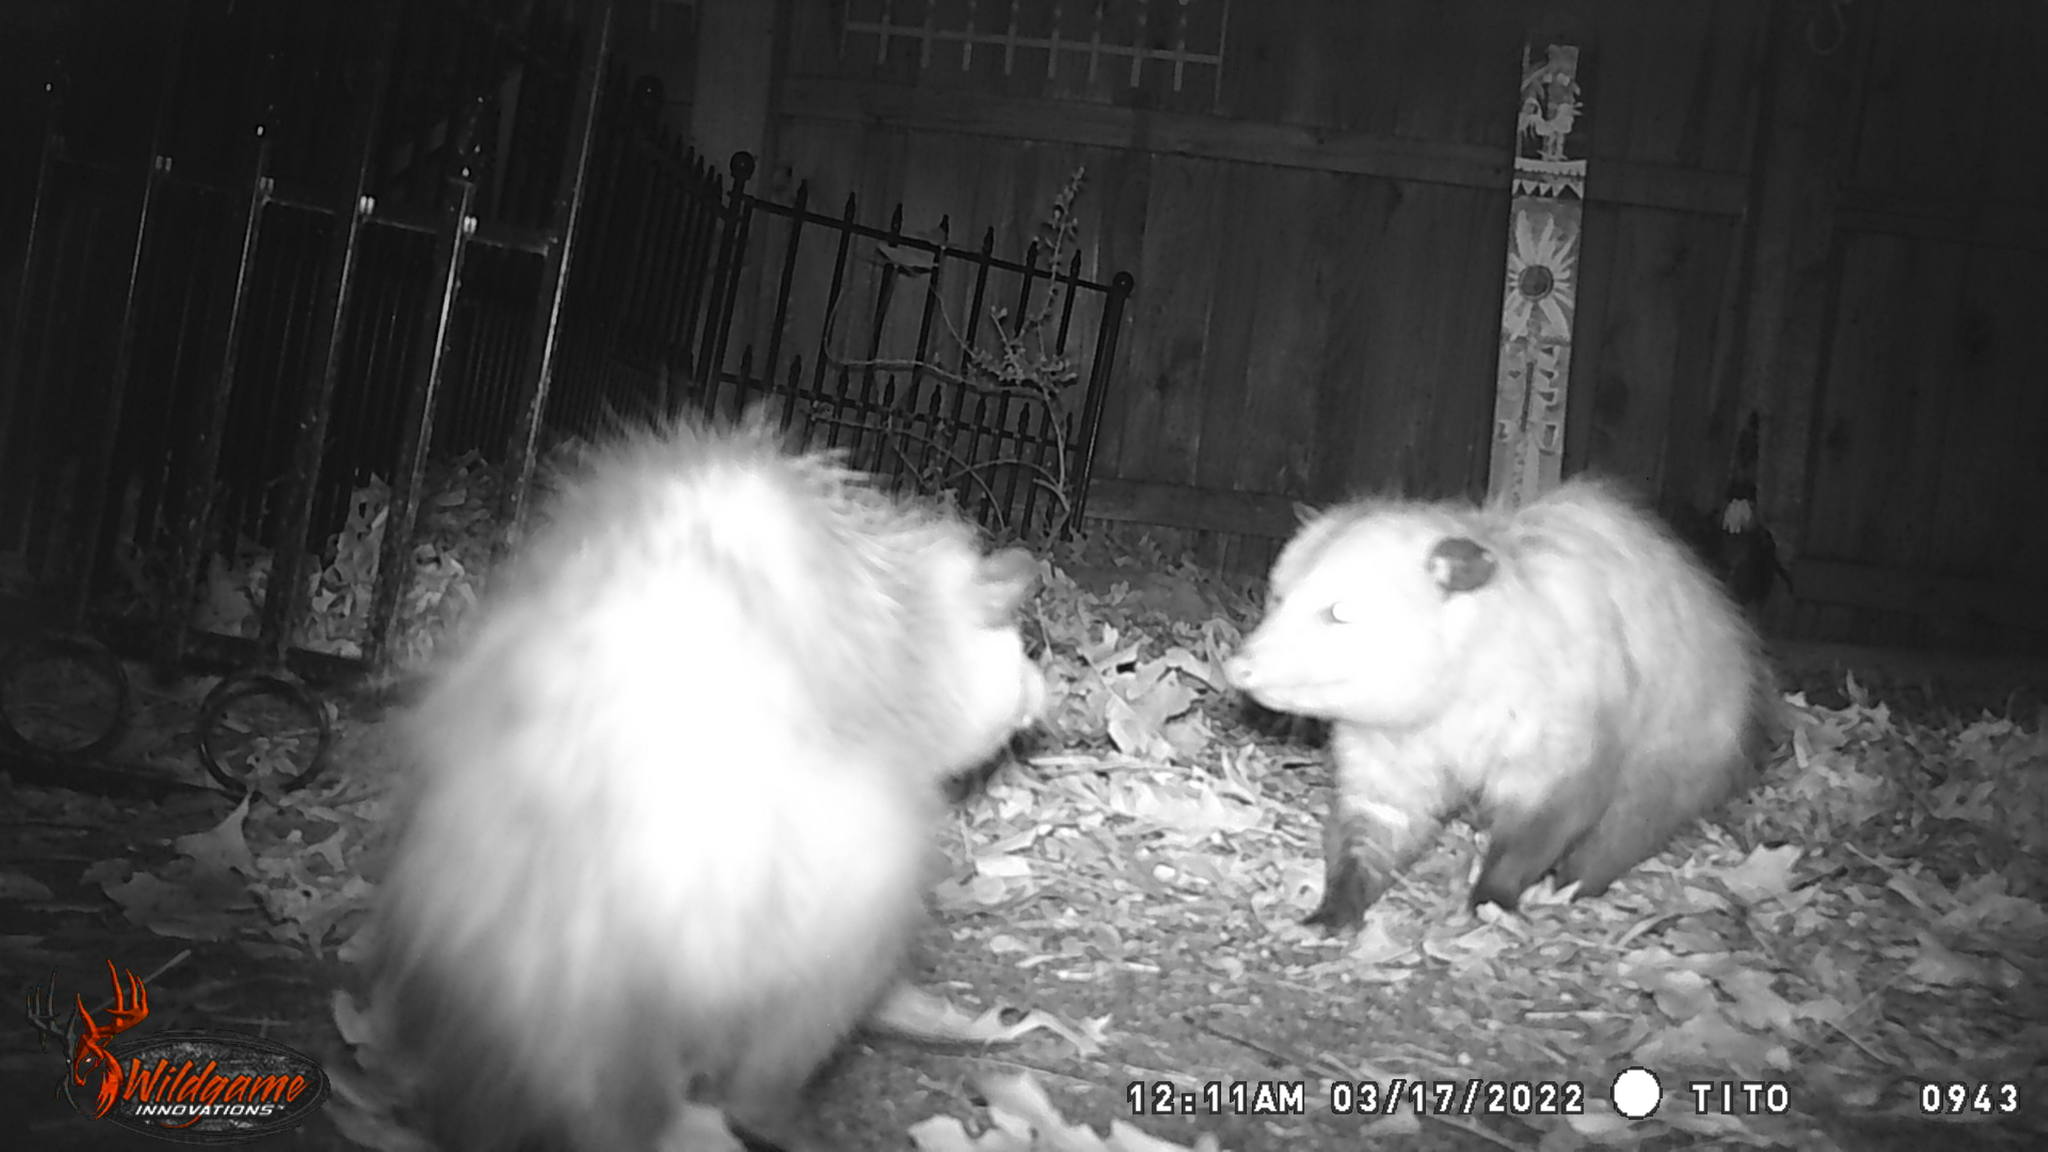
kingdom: Animalia
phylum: Chordata
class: Mammalia
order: Didelphimorphia
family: Didelphidae
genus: Didelphis
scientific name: Didelphis virginiana
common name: Virginia opossum
